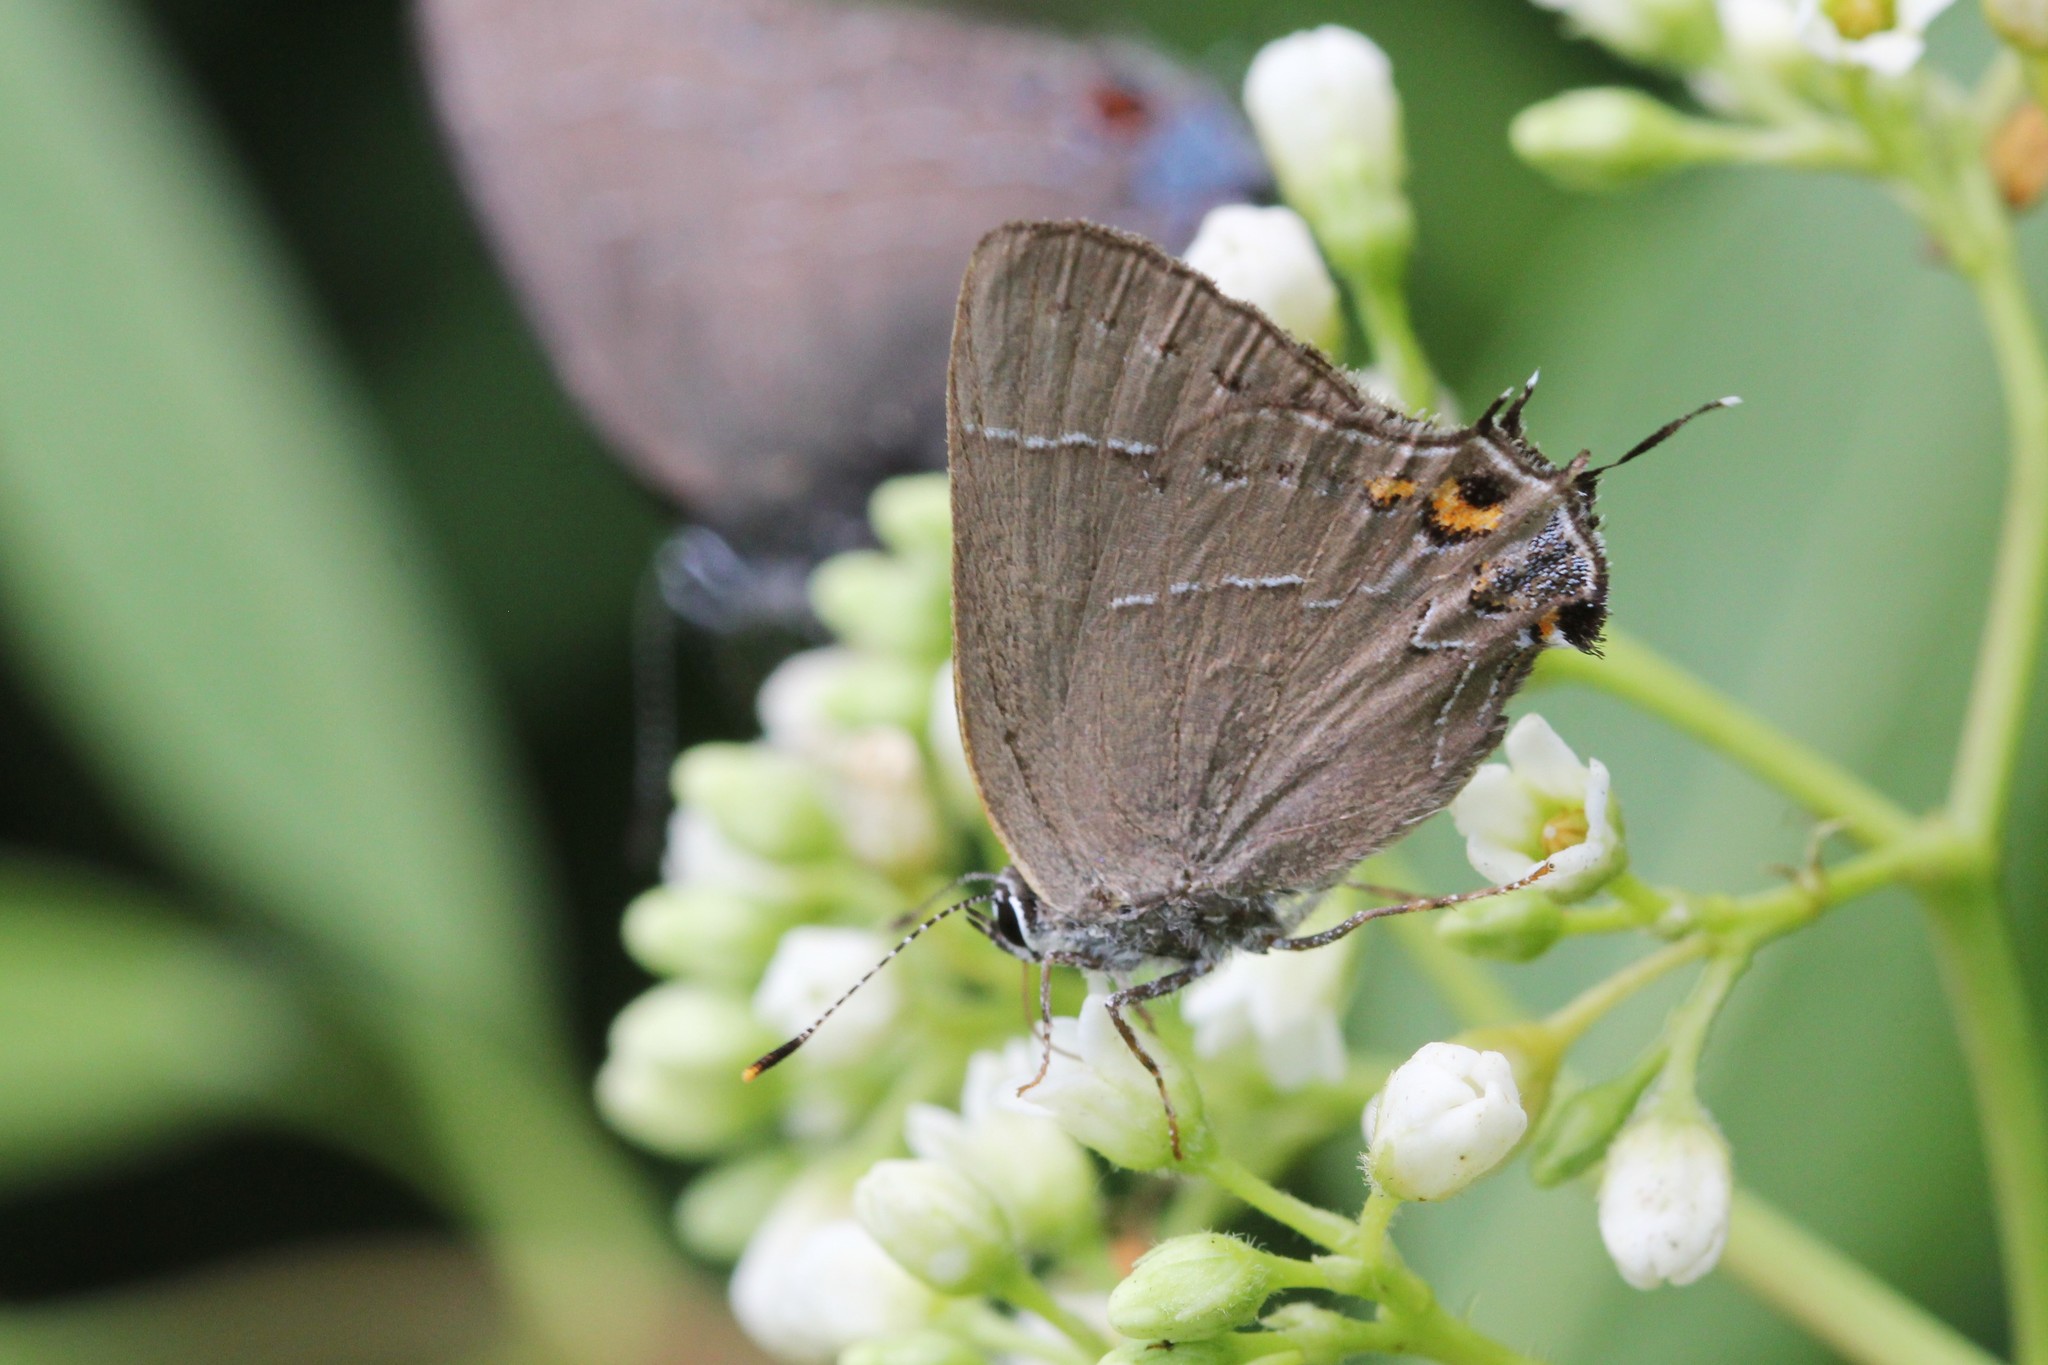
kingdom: Animalia
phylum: Arthropoda
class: Insecta
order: Lepidoptera
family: Lycaenidae
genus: Fixsenia
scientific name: Fixsenia ontario
